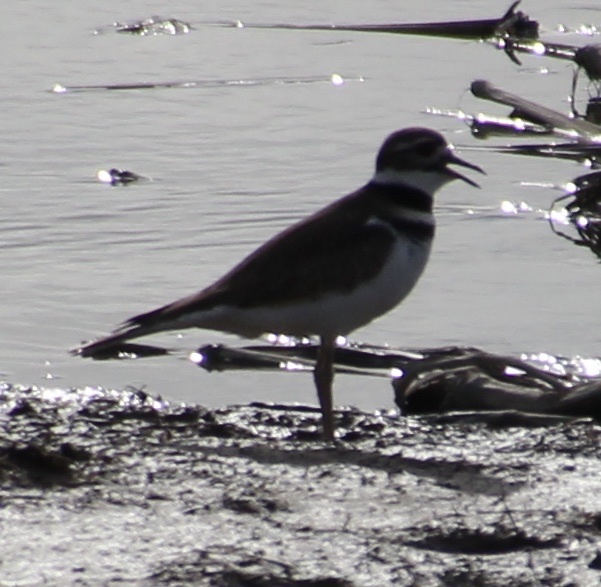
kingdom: Animalia
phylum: Chordata
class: Aves
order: Charadriiformes
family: Charadriidae
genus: Charadrius
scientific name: Charadrius vociferus
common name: Killdeer
